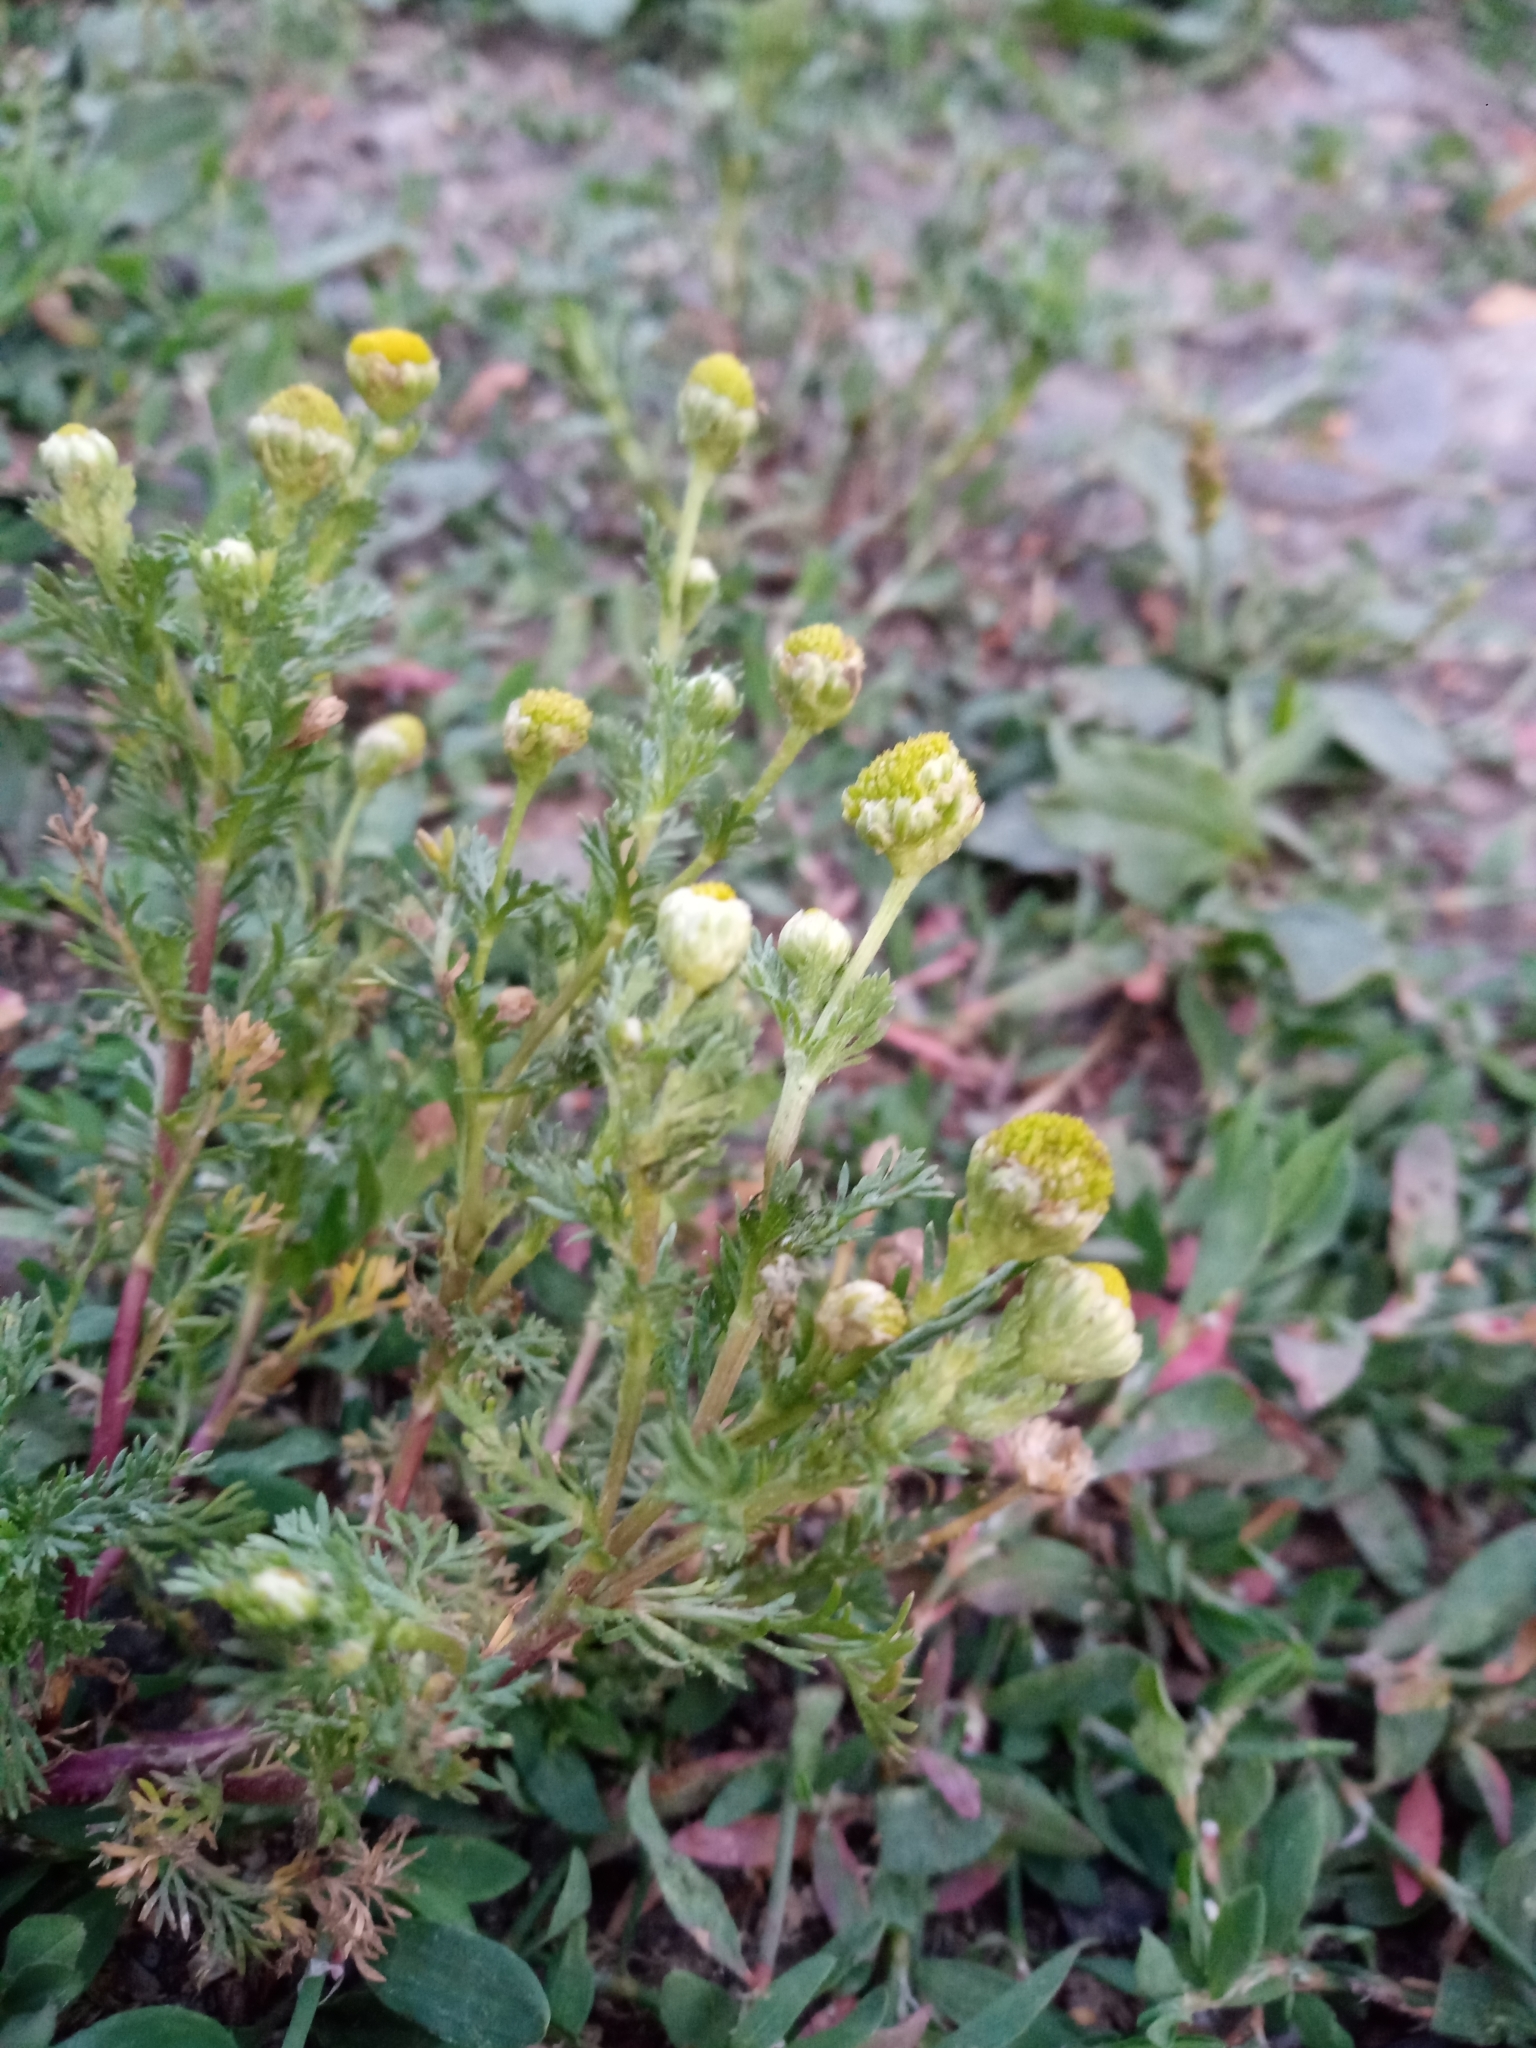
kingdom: Plantae
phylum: Tracheophyta
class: Magnoliopsida
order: Asterales
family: Asteraceae
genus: Matricaria
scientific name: Matricaria discoidea
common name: Disc mayweed
